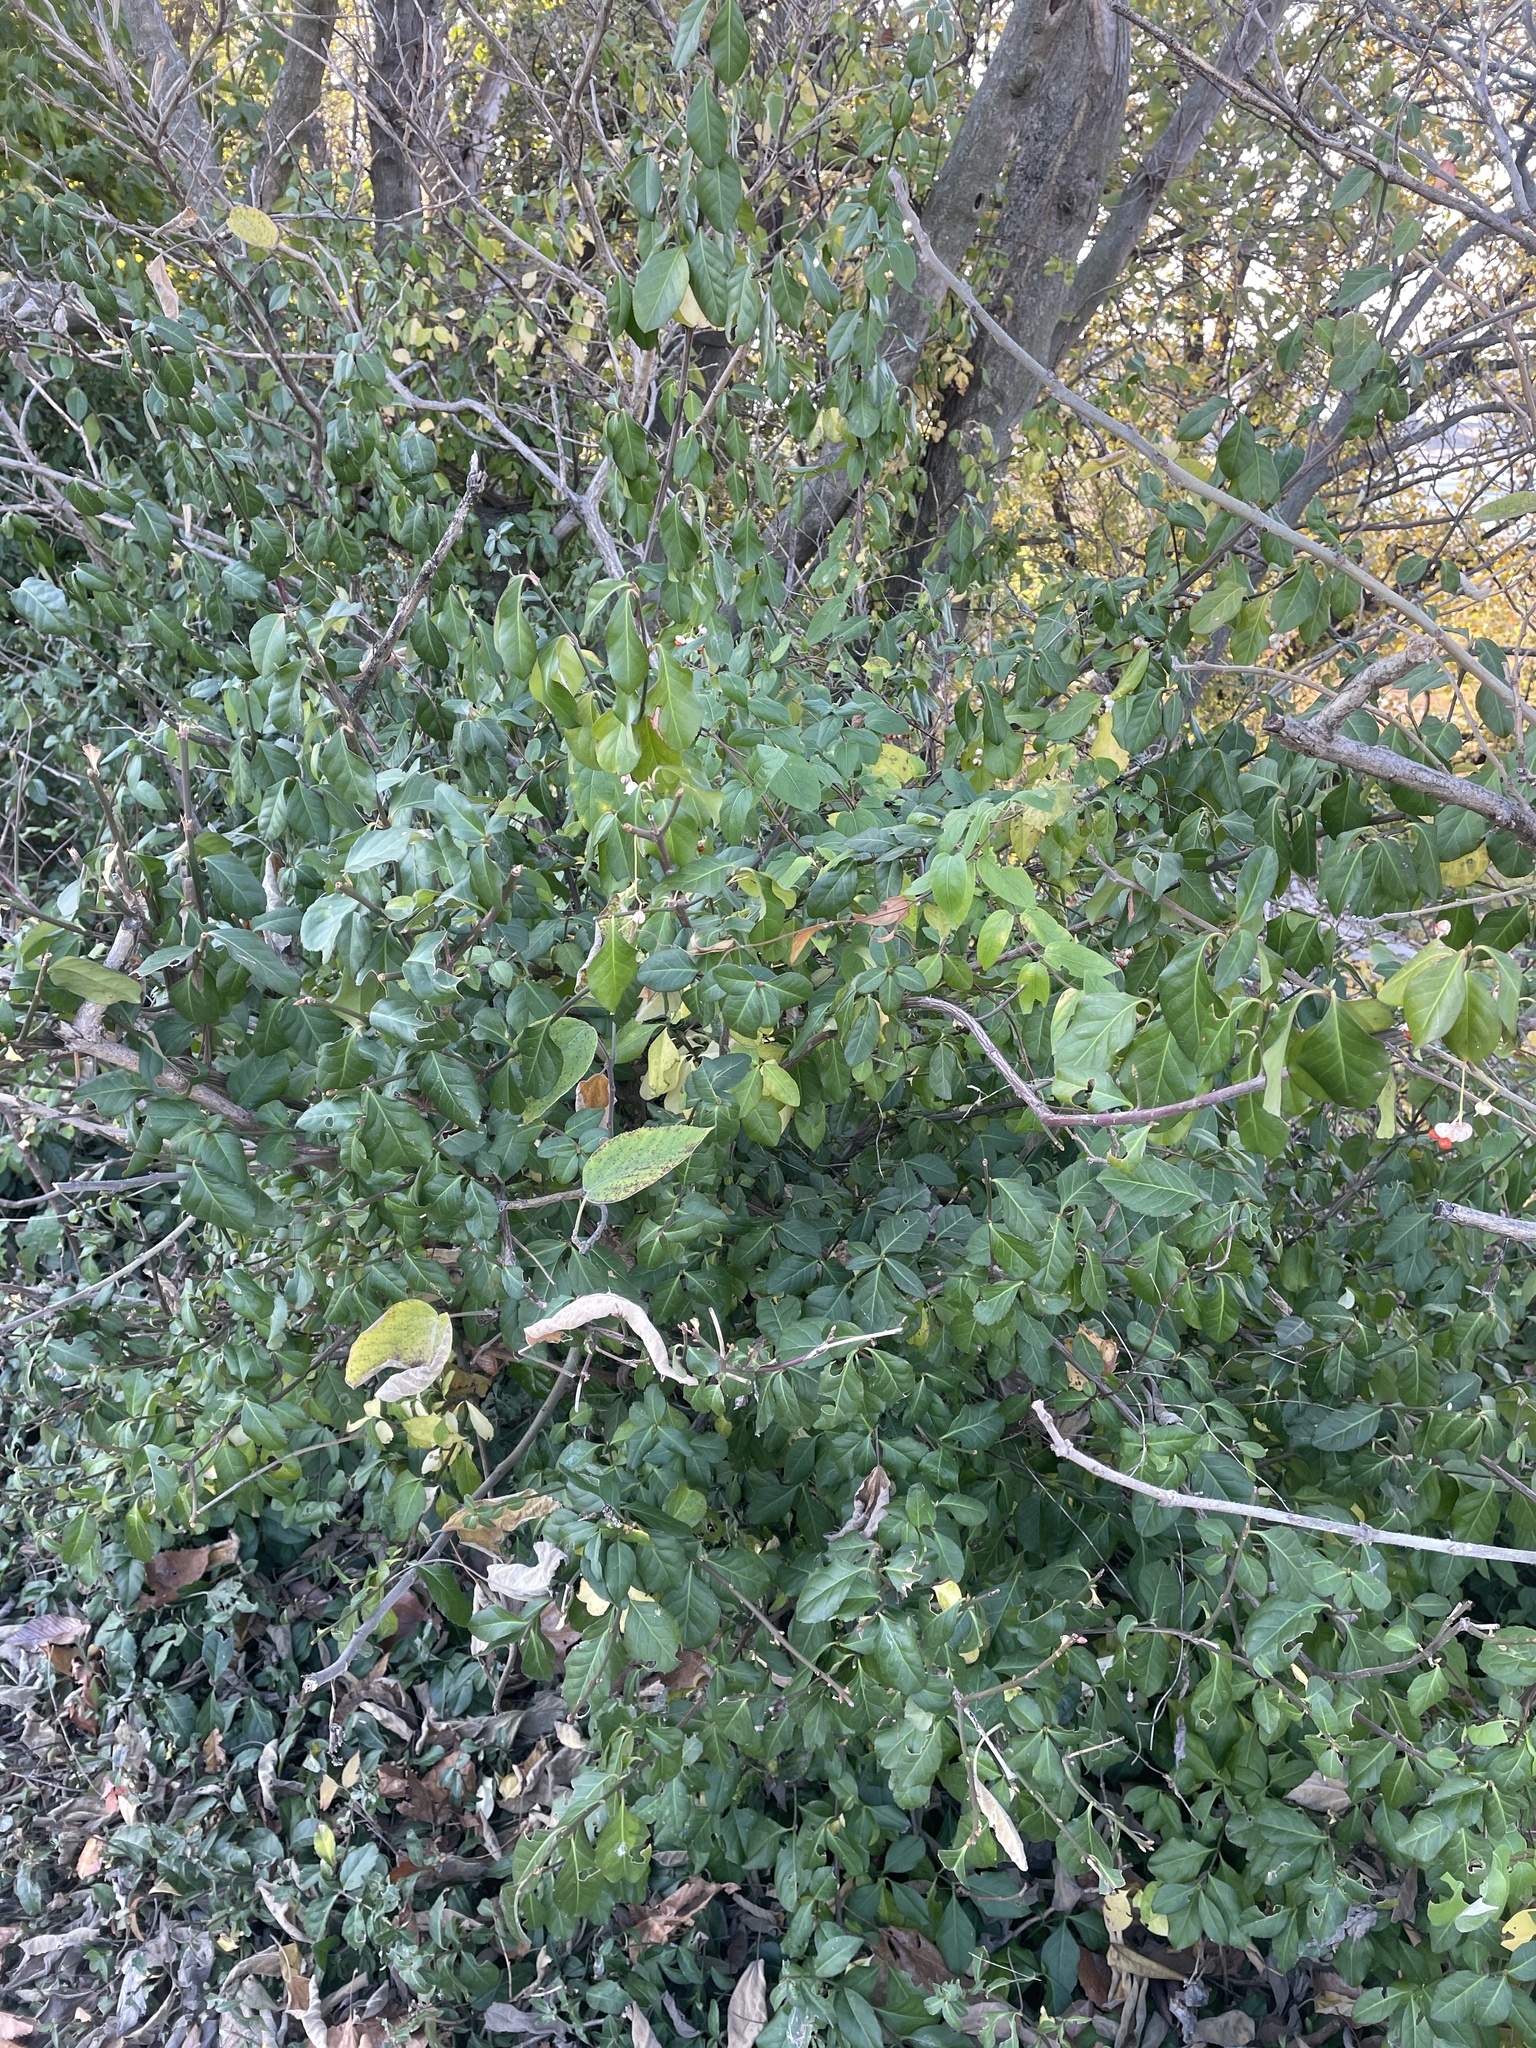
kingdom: Plantae
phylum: Tracheophyta
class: Magnoliopsida
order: Celastrales
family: Celastraceae
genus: Euonymus
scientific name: Euonymus fortunei
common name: Climbing euonymus
